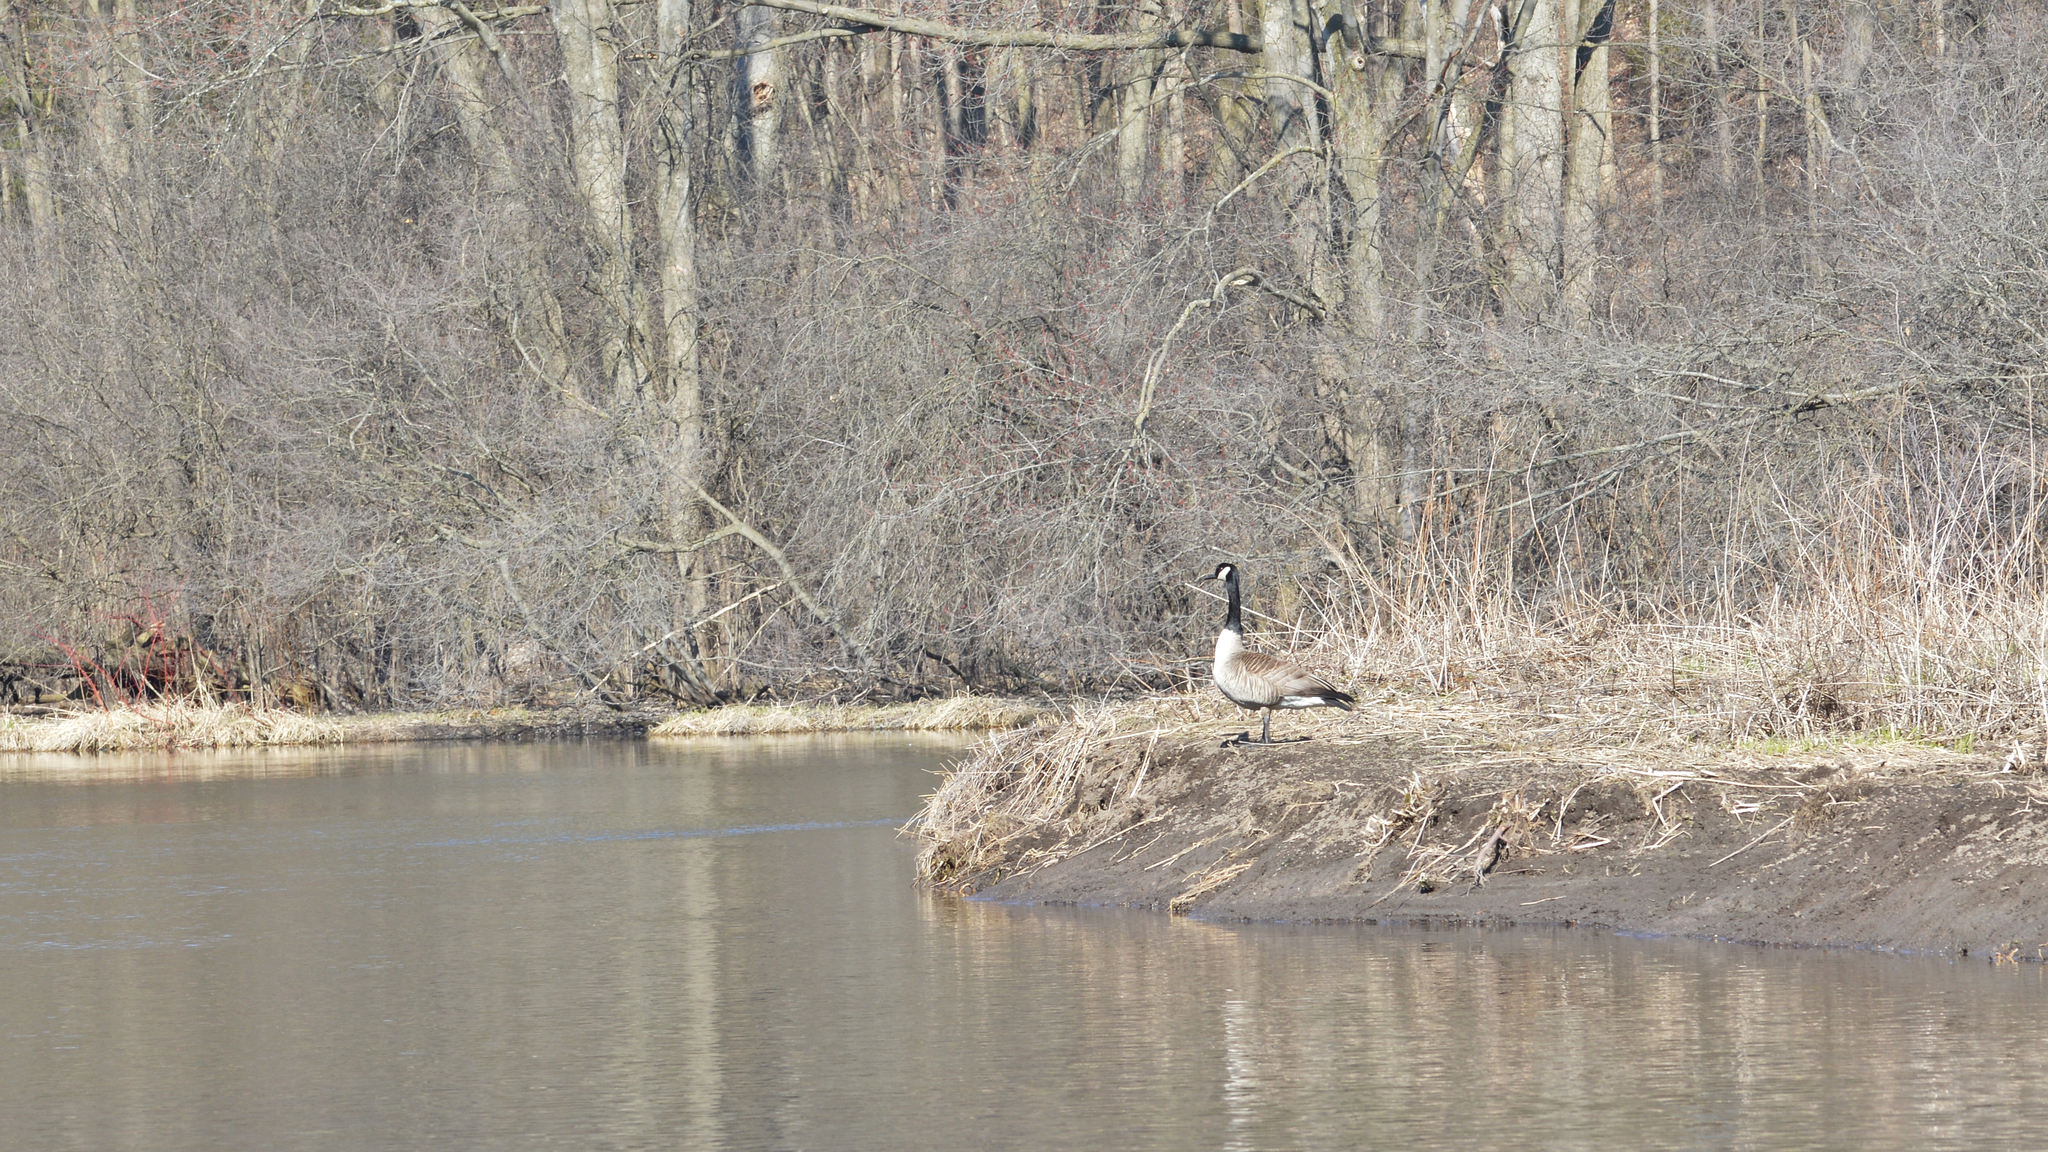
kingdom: Animalia
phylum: Chordata
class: Aves
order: Anseriformes
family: Anatidae
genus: Branta
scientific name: Branta canadensis
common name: Canada goose
